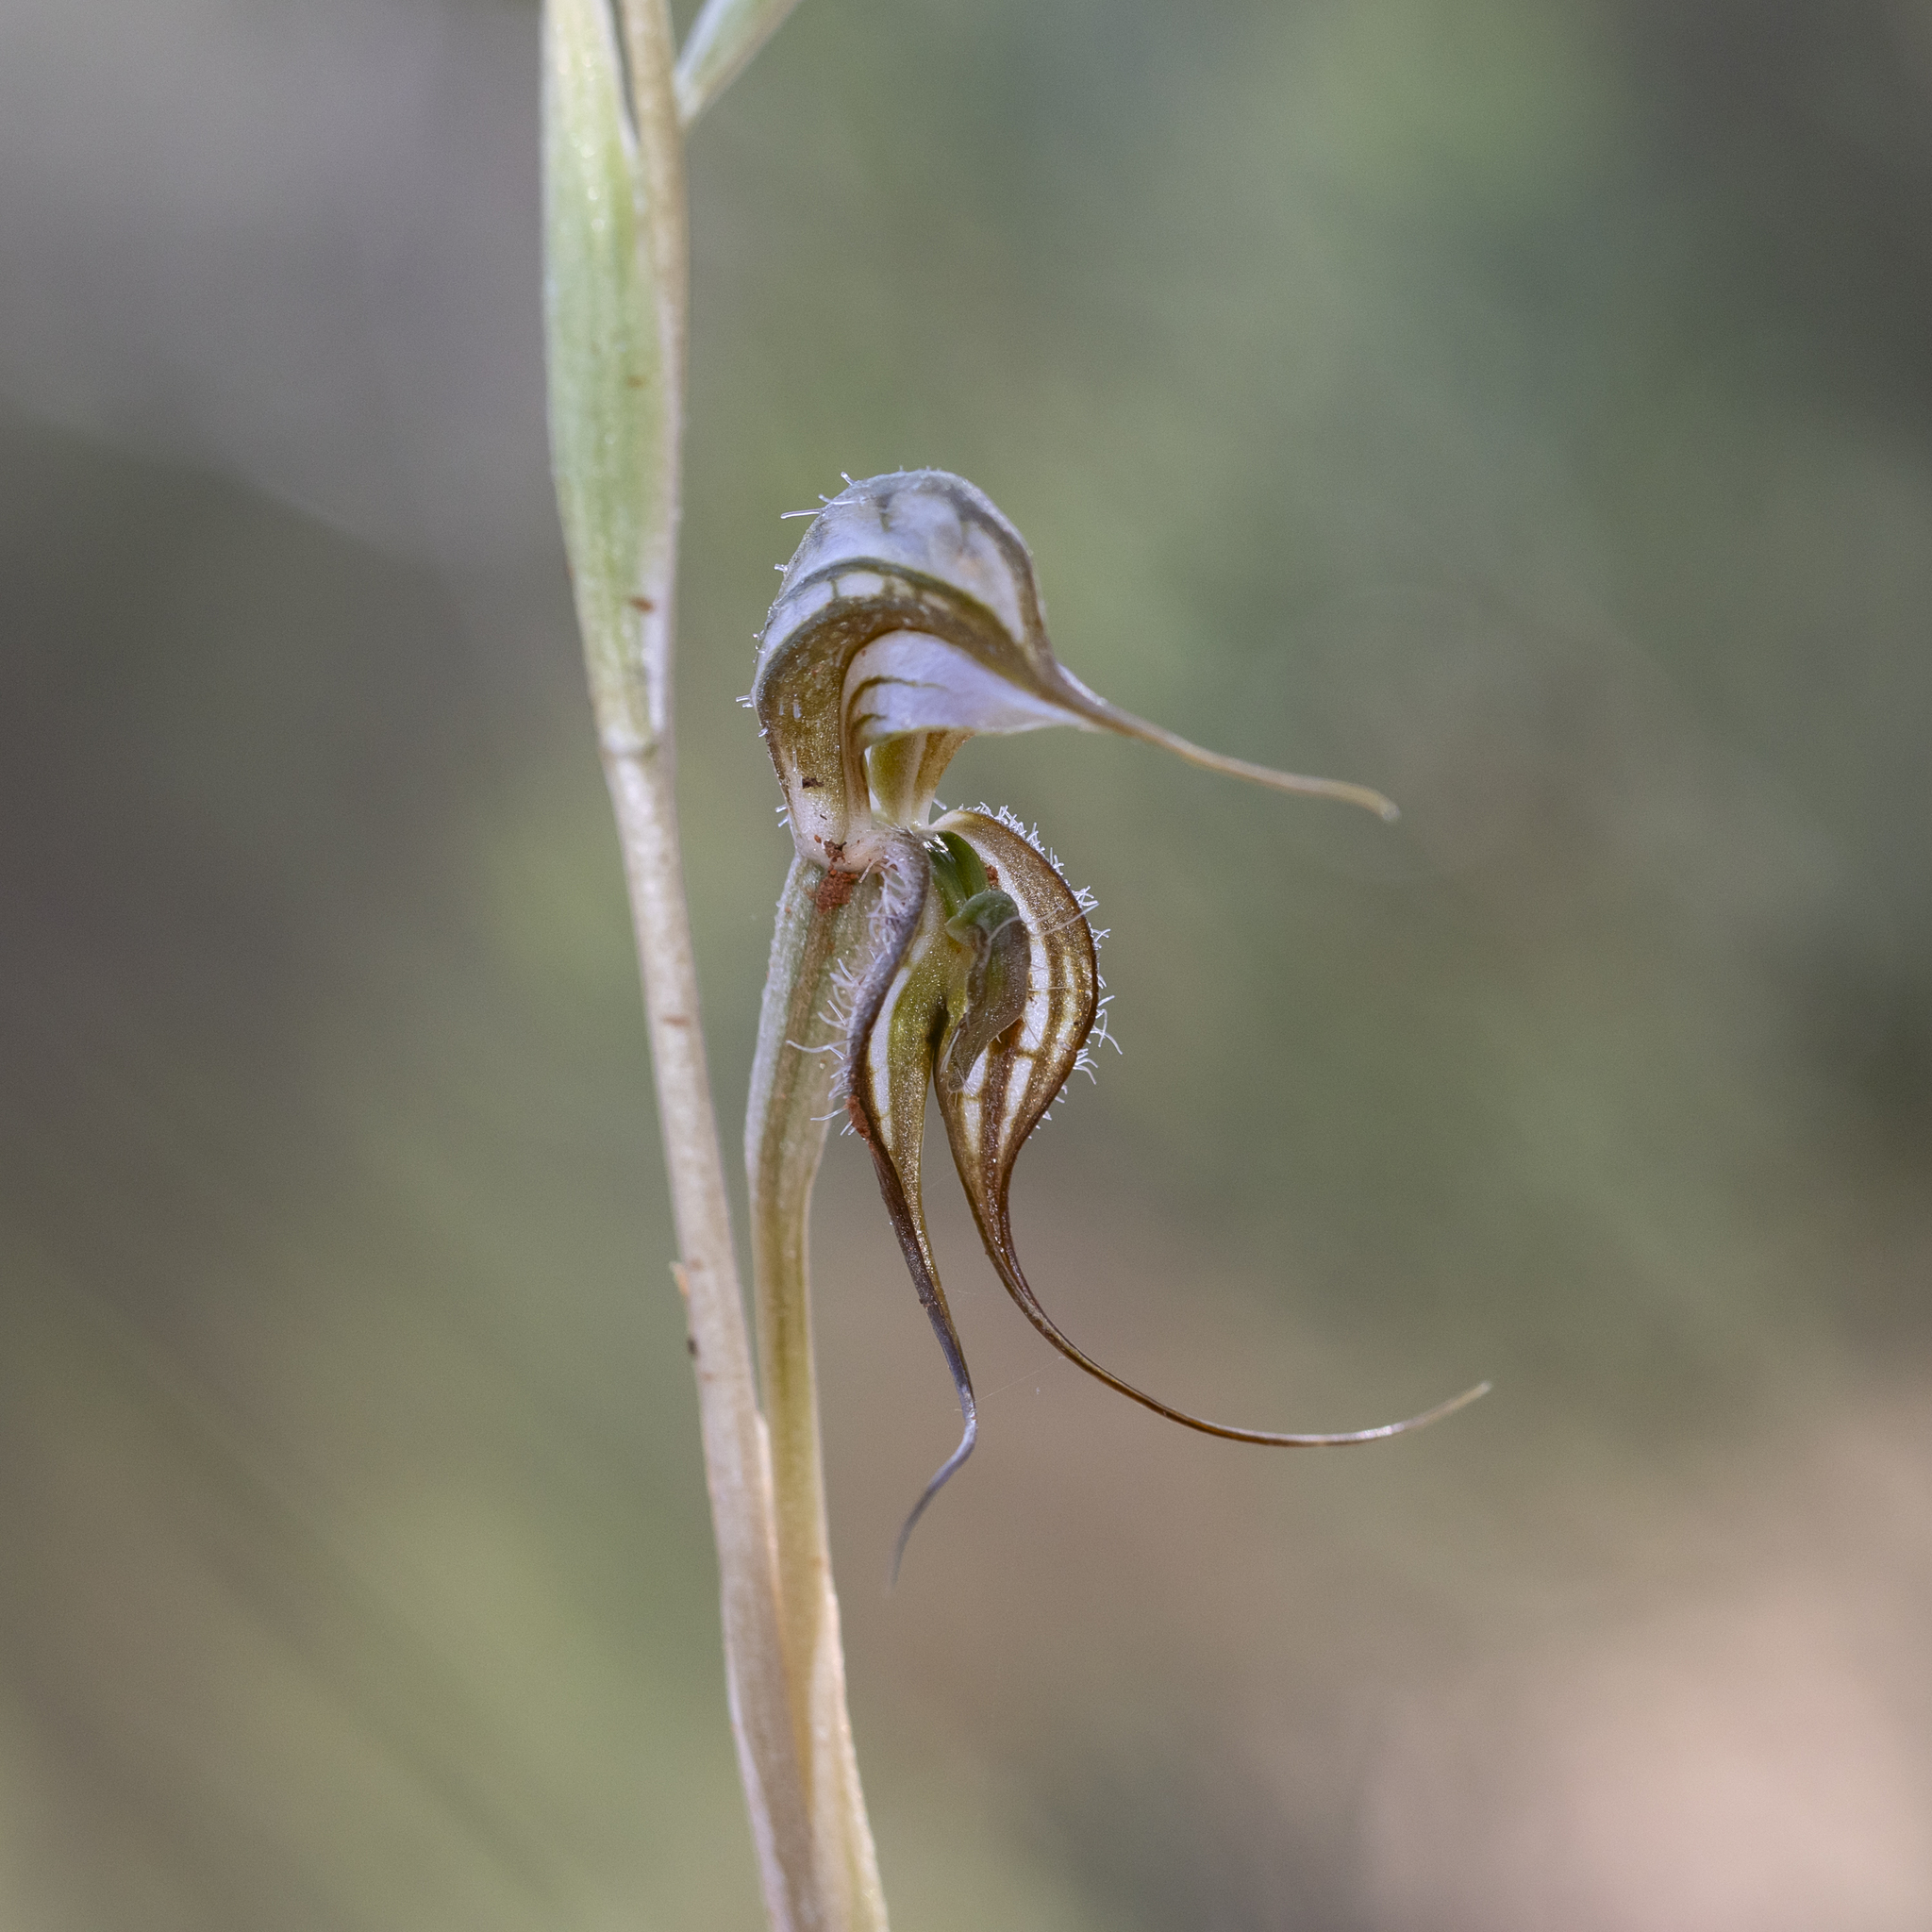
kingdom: Plantae
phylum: Tracheophyta
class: Liliopsida
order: Asparagales
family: Orchidaceae
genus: Pterostylis
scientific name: Pterostylis biseta
